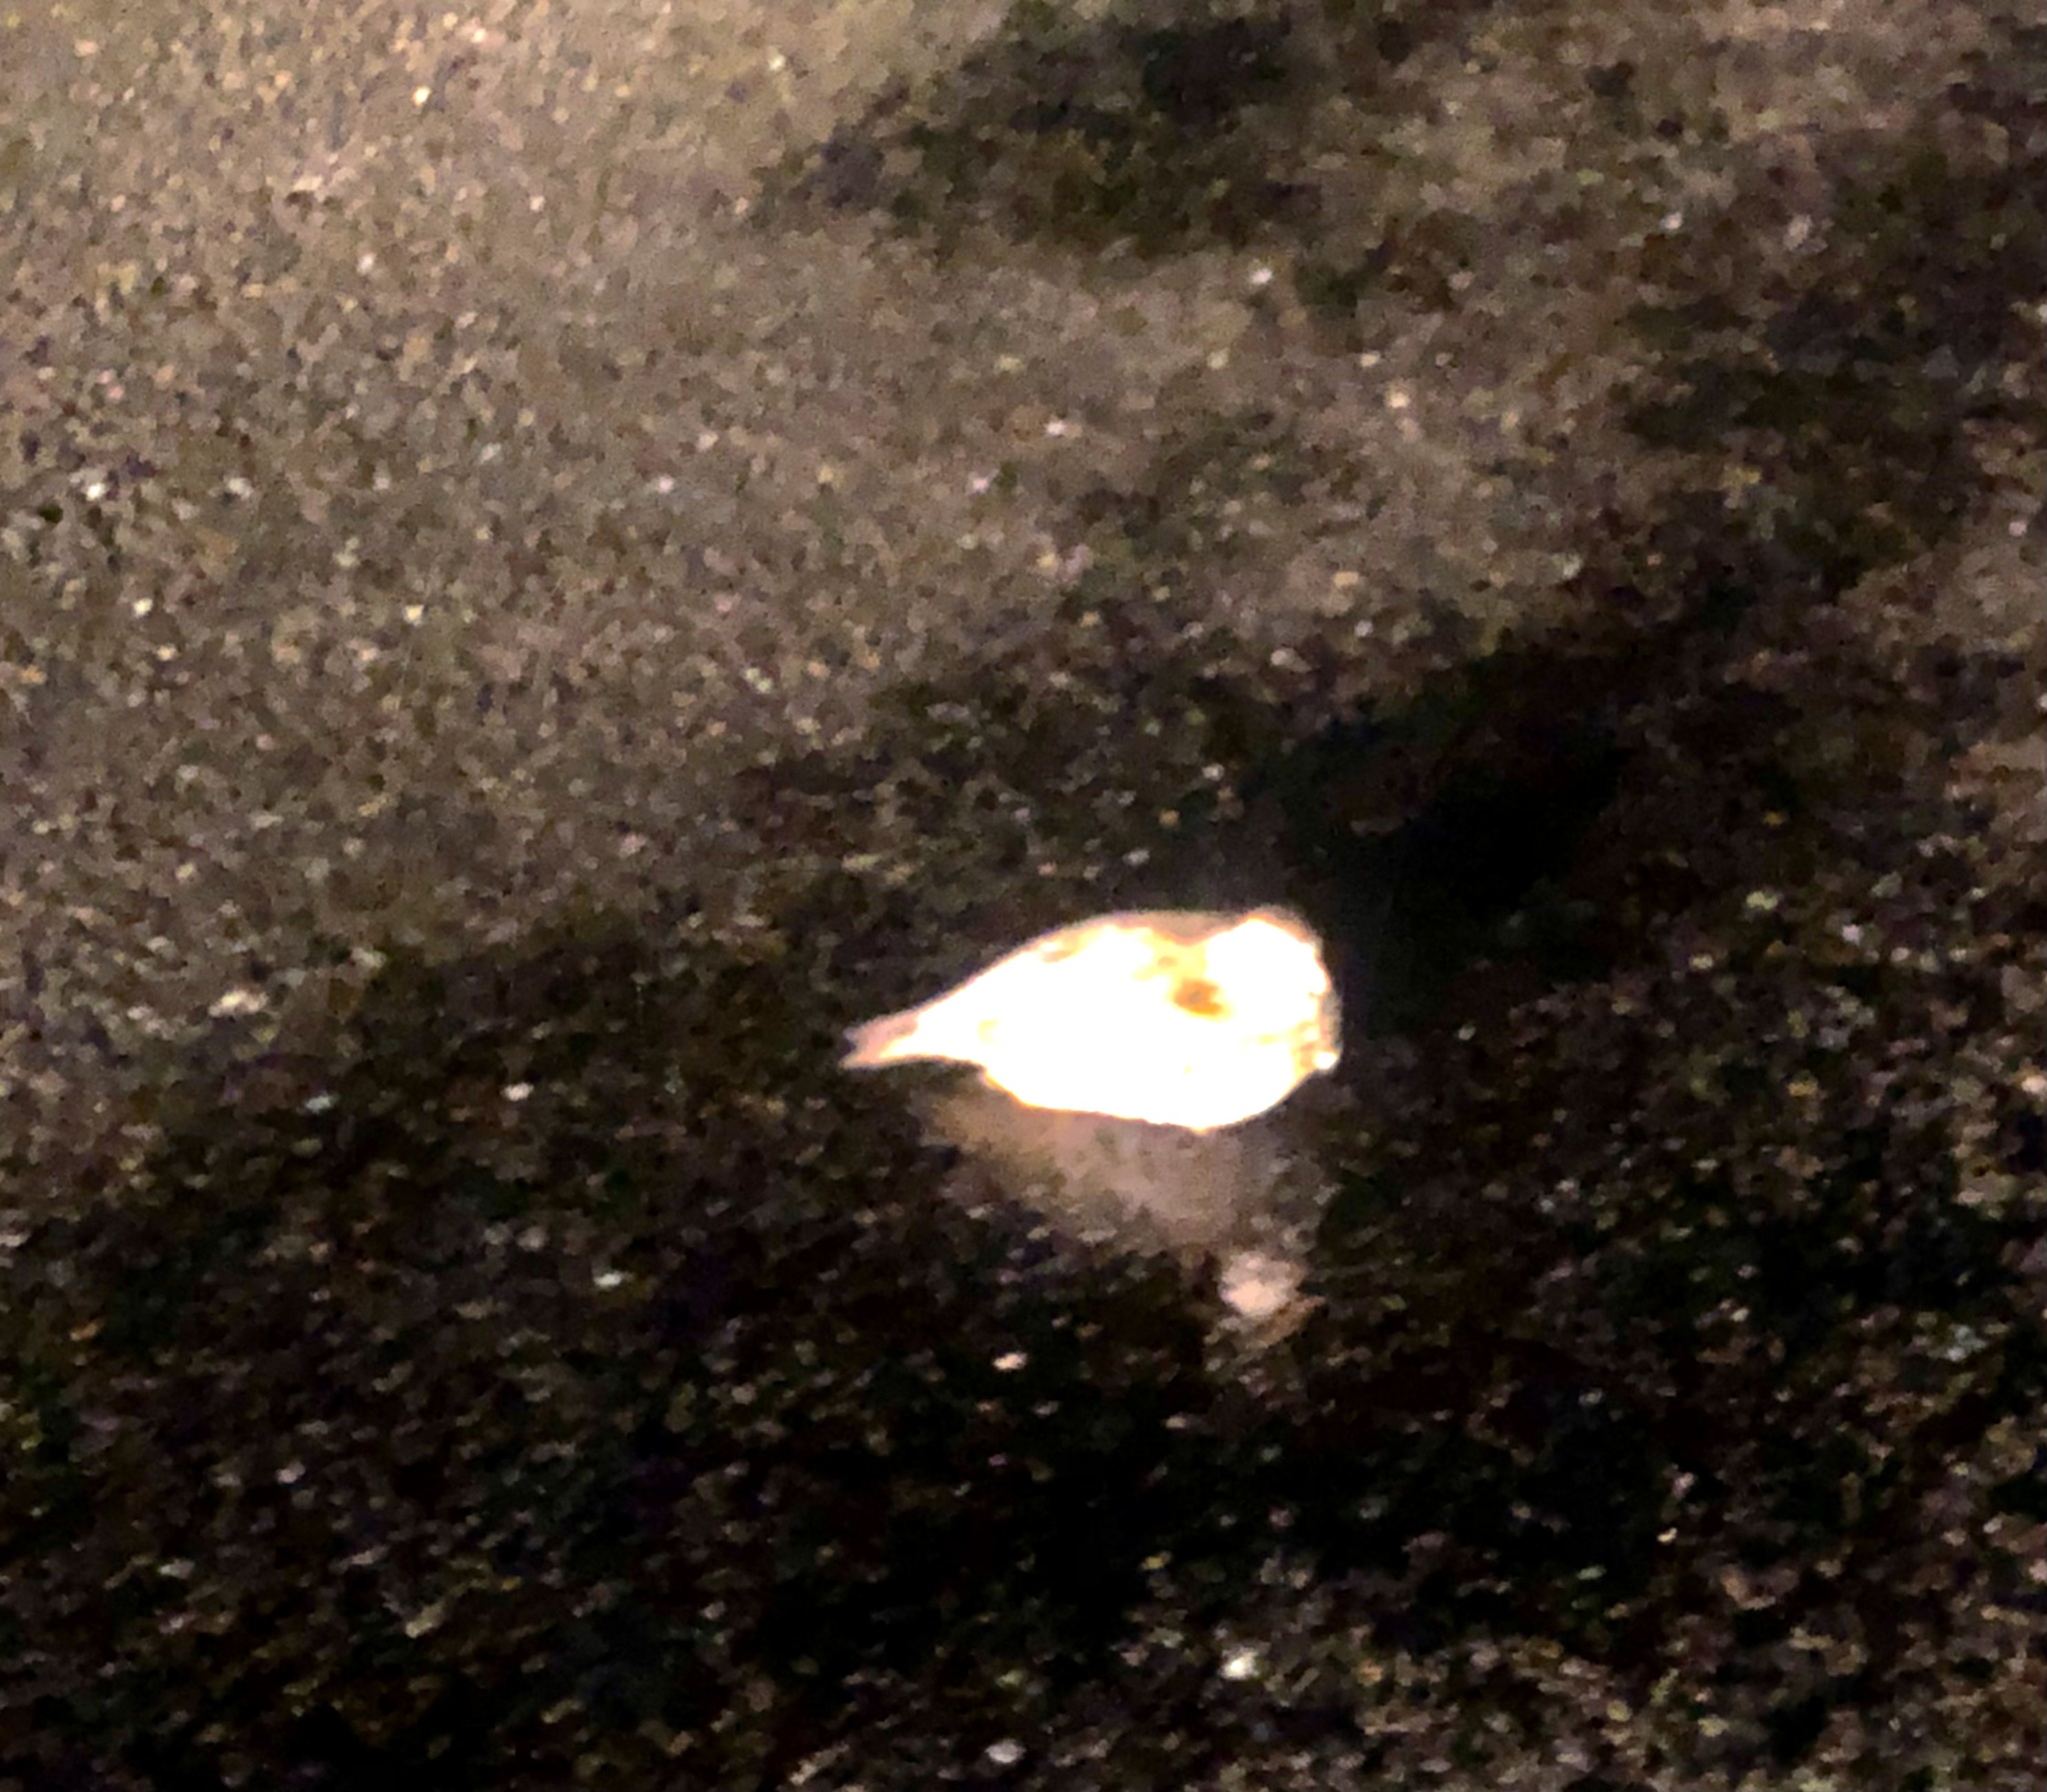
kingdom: Animalia
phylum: Chordata
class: Aves
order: Galliformes
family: Phasianidae
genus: Alectoris
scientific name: Alectoris rufa
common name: Red-legged partridge
